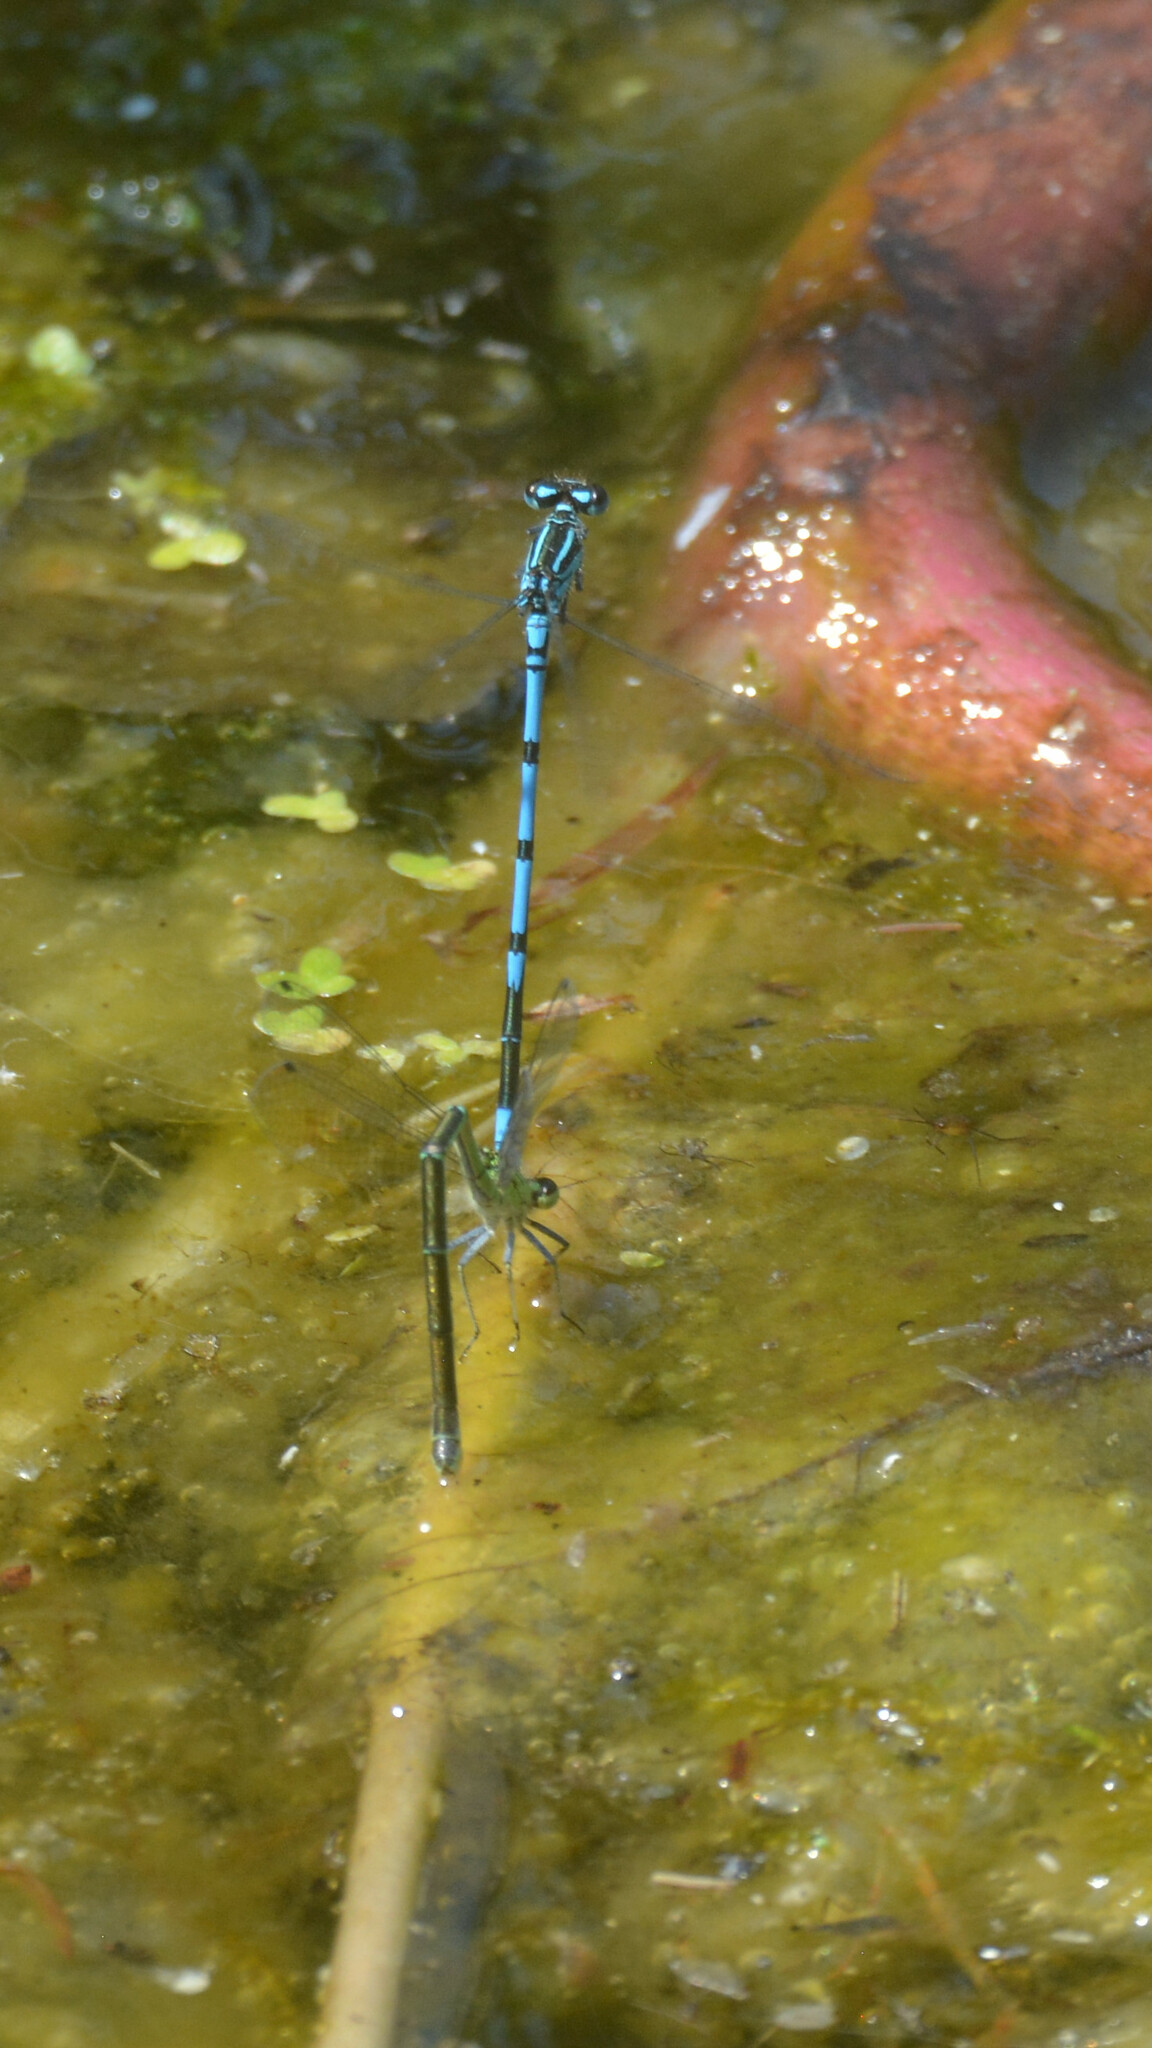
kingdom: Animalia
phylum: Arthropoda
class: Insecta
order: Odonata
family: Coenagrionidae
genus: Coenagrion
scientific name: Coenagrion puella
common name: Azure damselfly
